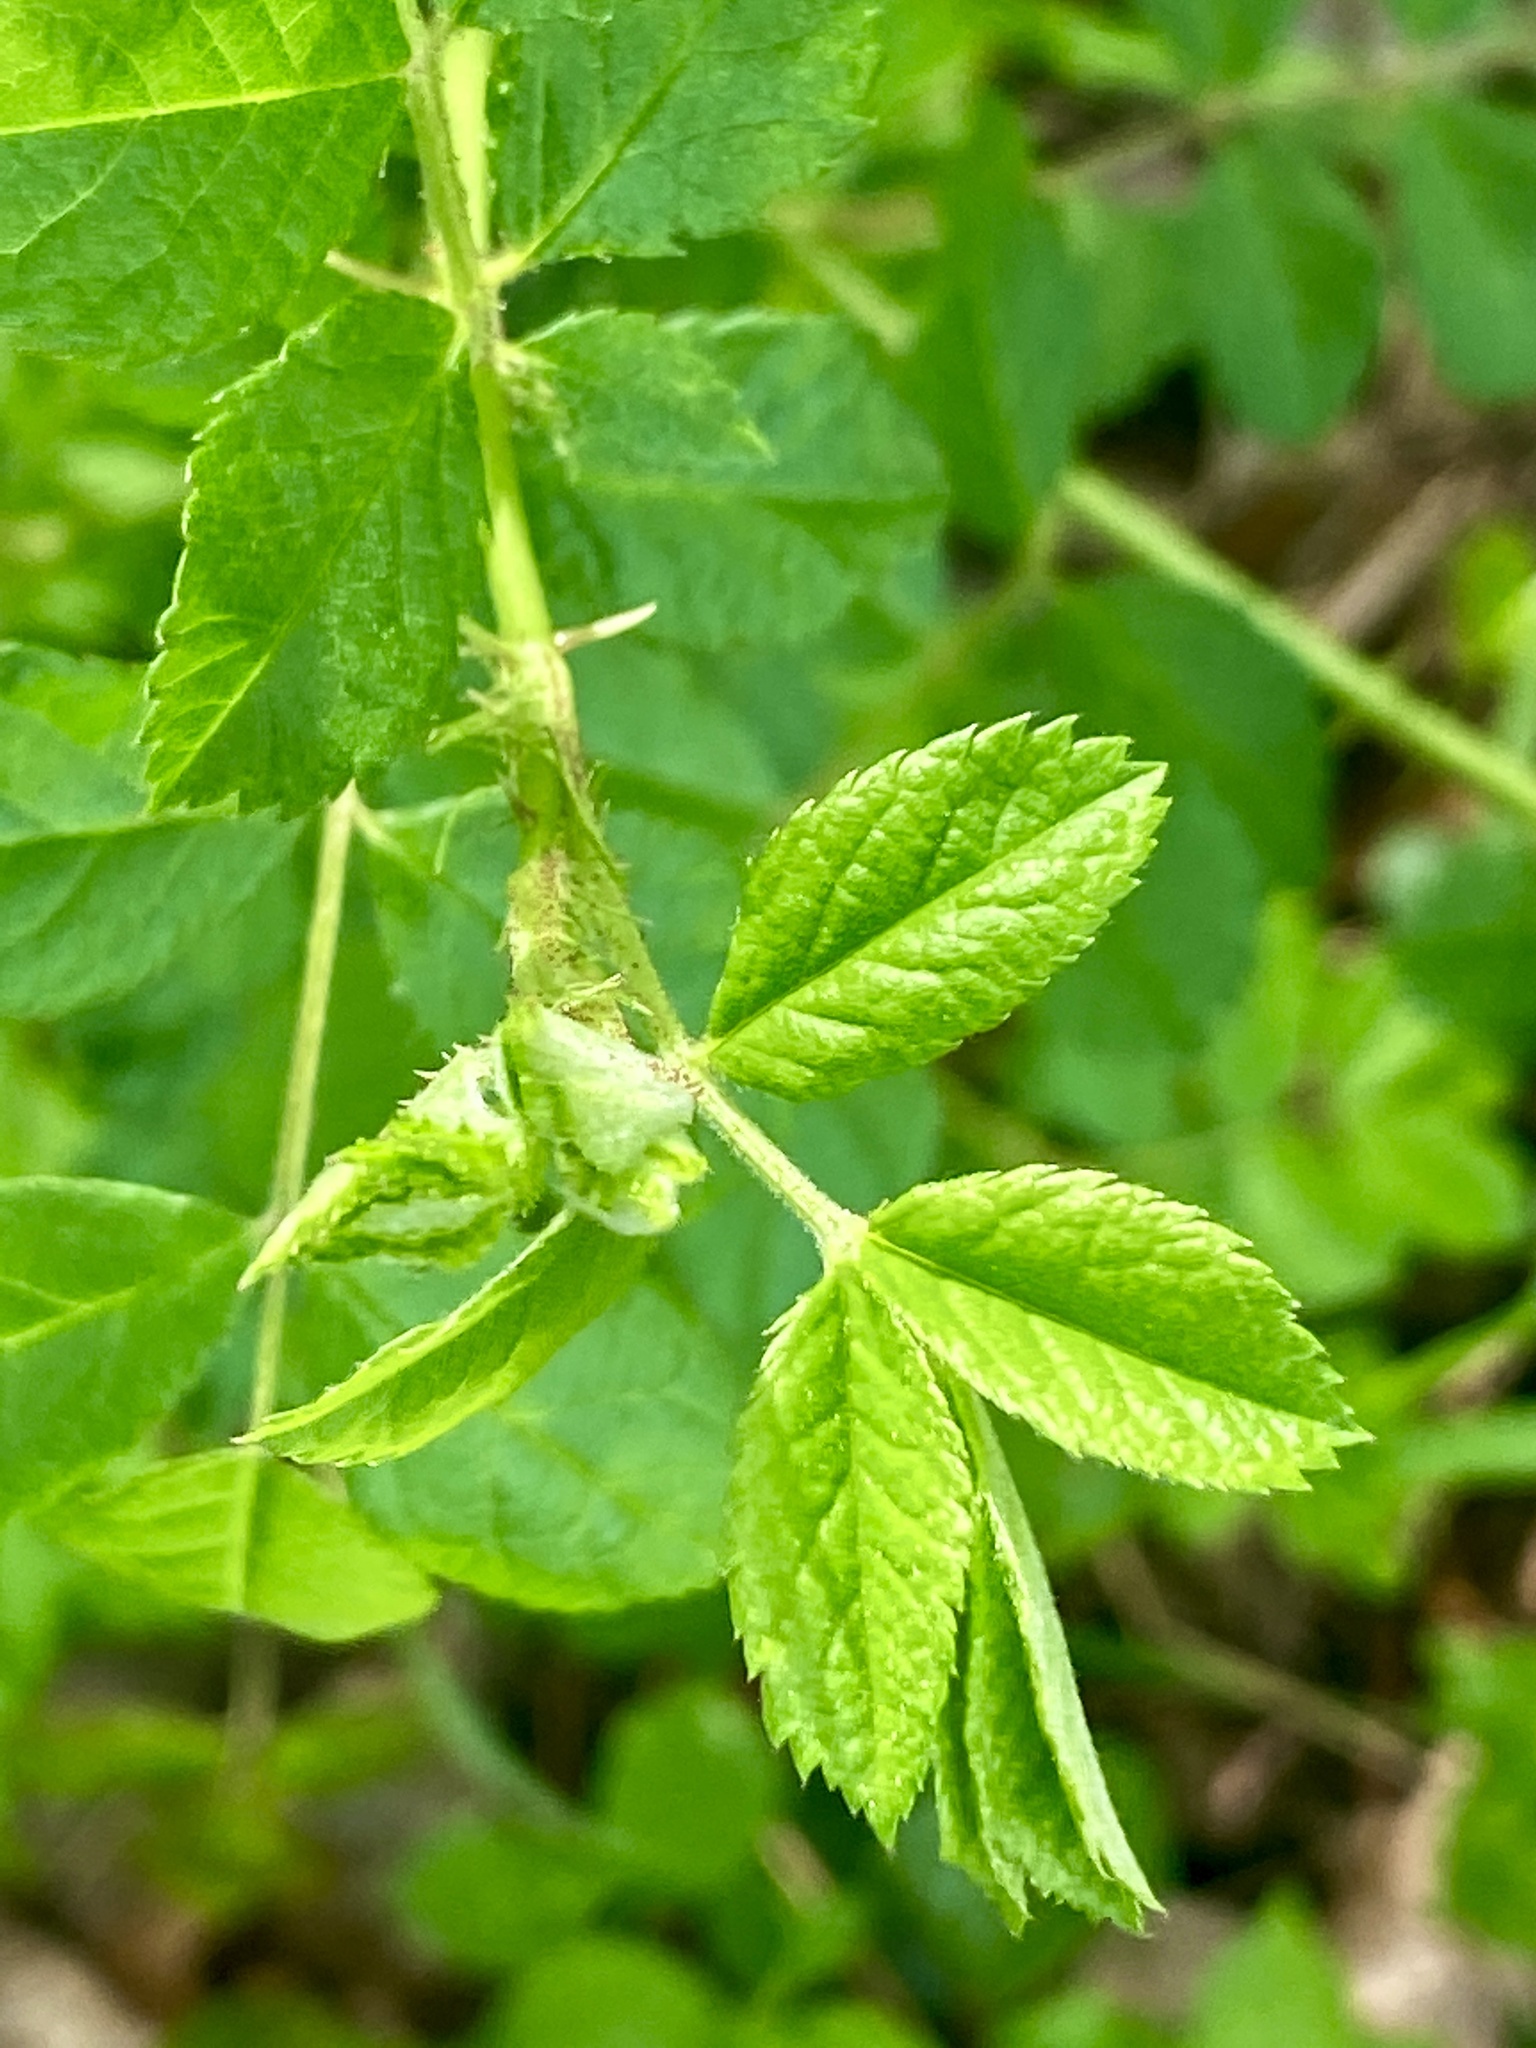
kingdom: Plantae
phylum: Tracheophyta
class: Magnoliopsida
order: Rosales
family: Rosaceae
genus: Rosa
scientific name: Rosa multiflora
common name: Multiflora rose
